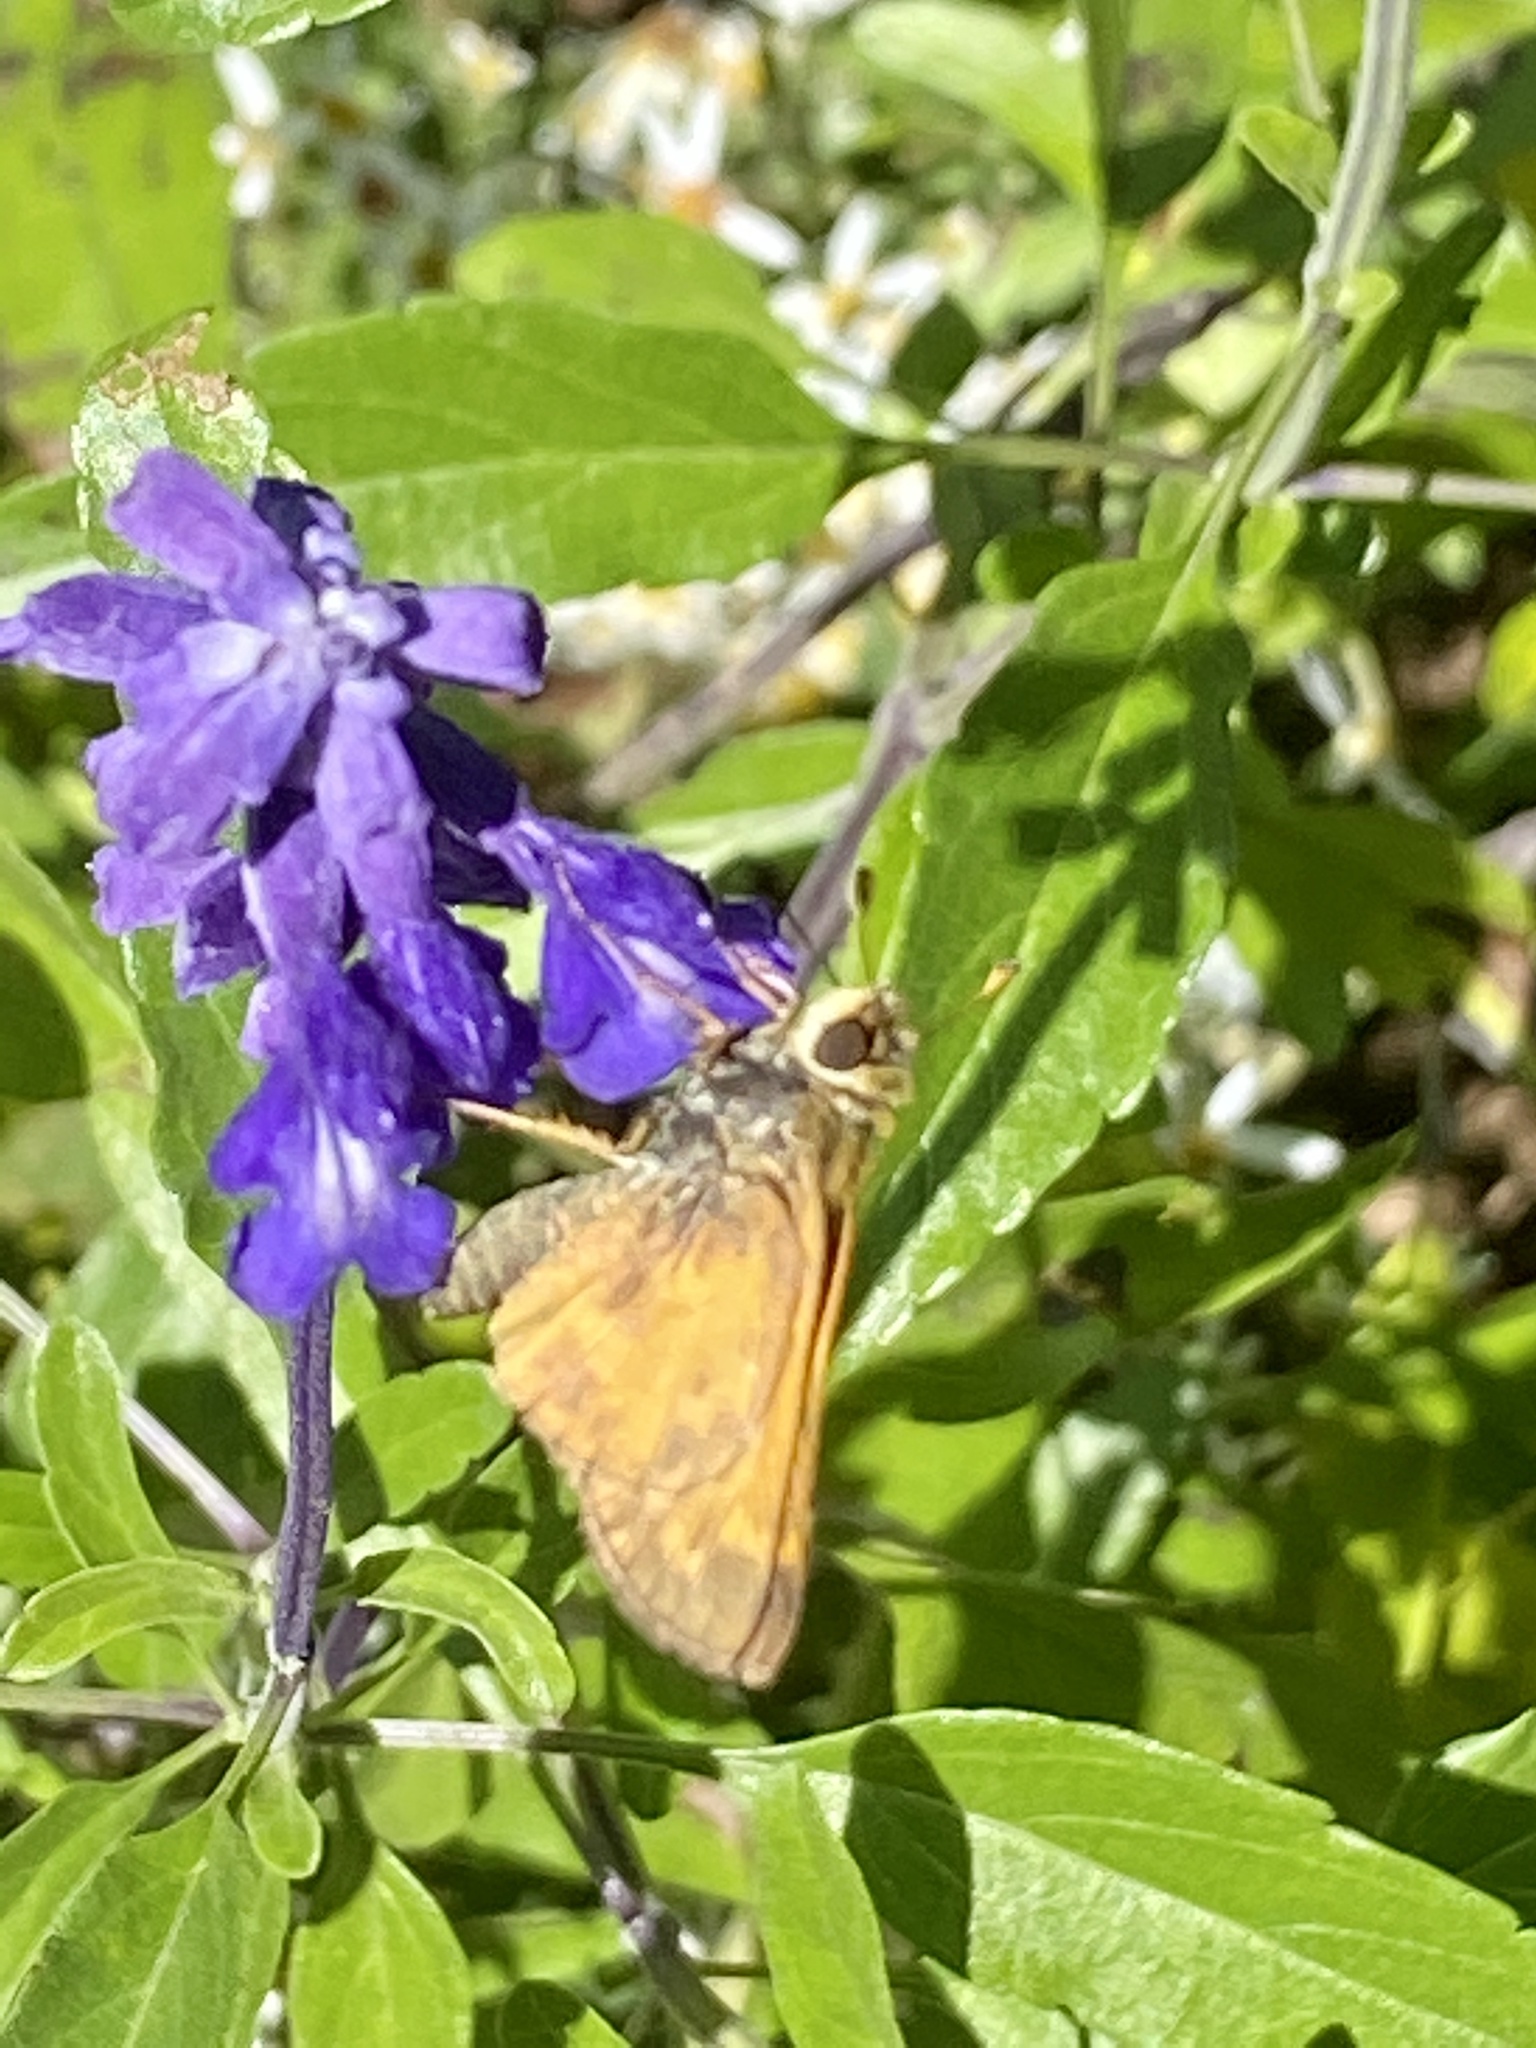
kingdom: Animalia
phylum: Arthropoda
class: Insecta
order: Lepidoptera
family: Hesperiidae
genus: Atalopedes
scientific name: Atalopedes
